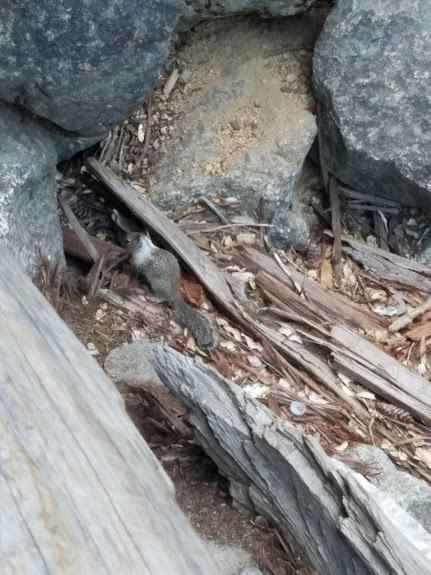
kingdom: Animalia
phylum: Chordata
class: Mammalia
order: Rodentia
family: Sciuridae
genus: Otospermophilus
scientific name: Otospermophilus beecheyi
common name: California ground squirrel
